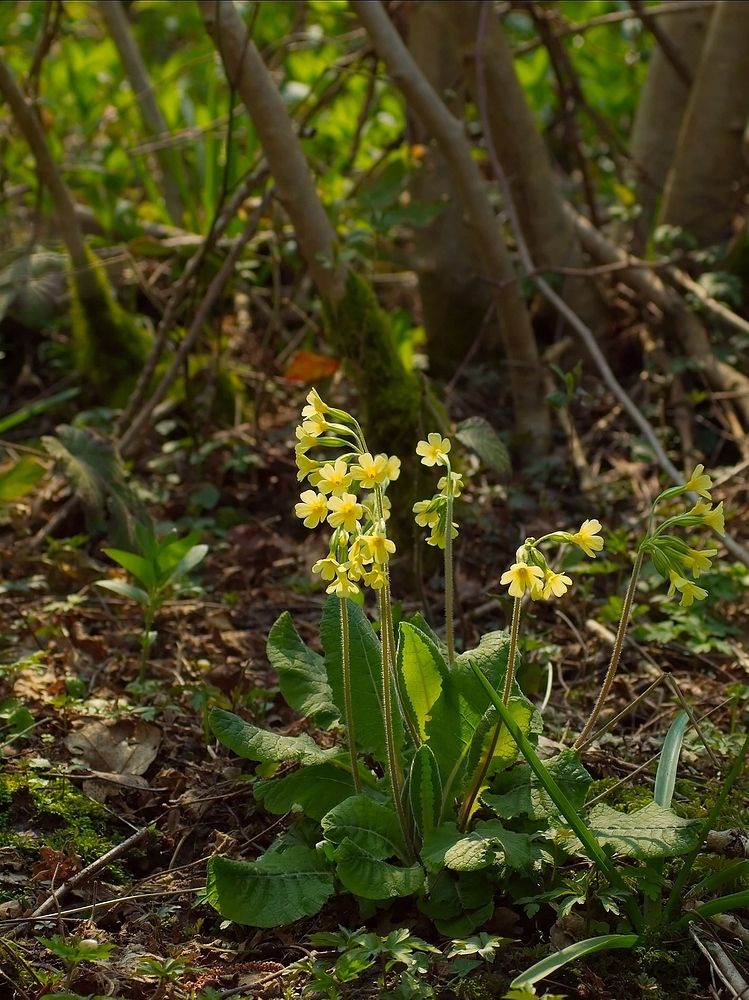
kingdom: Plantae
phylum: Tracheophyta
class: Magnoliopsida
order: Ericales
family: Primulaceae
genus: Primula
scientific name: Primula elatior
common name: Oxlip
